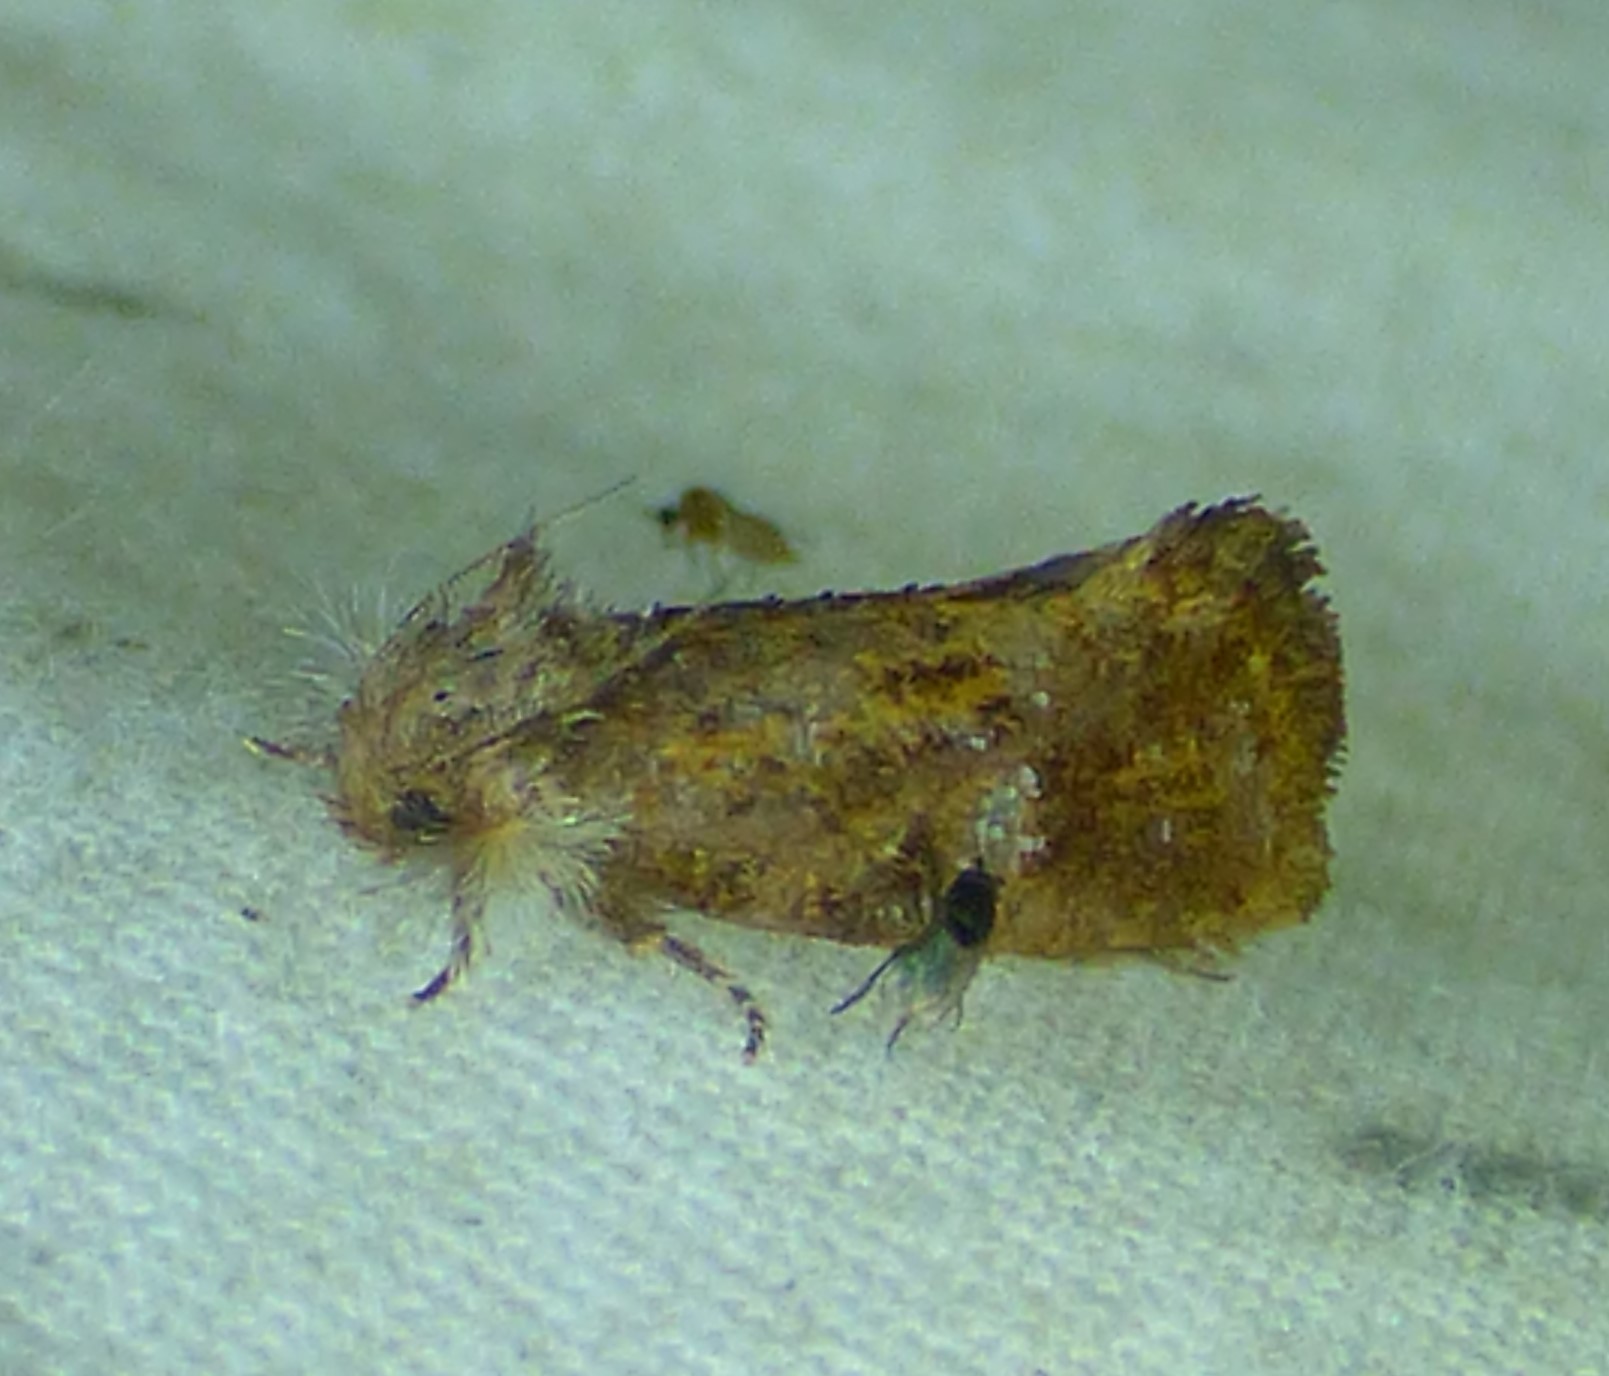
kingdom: Animalia
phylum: Arthropoda
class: Insecta
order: Lepidoptera
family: Tineidae
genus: Acrolophus
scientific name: Acrolophus panamae
